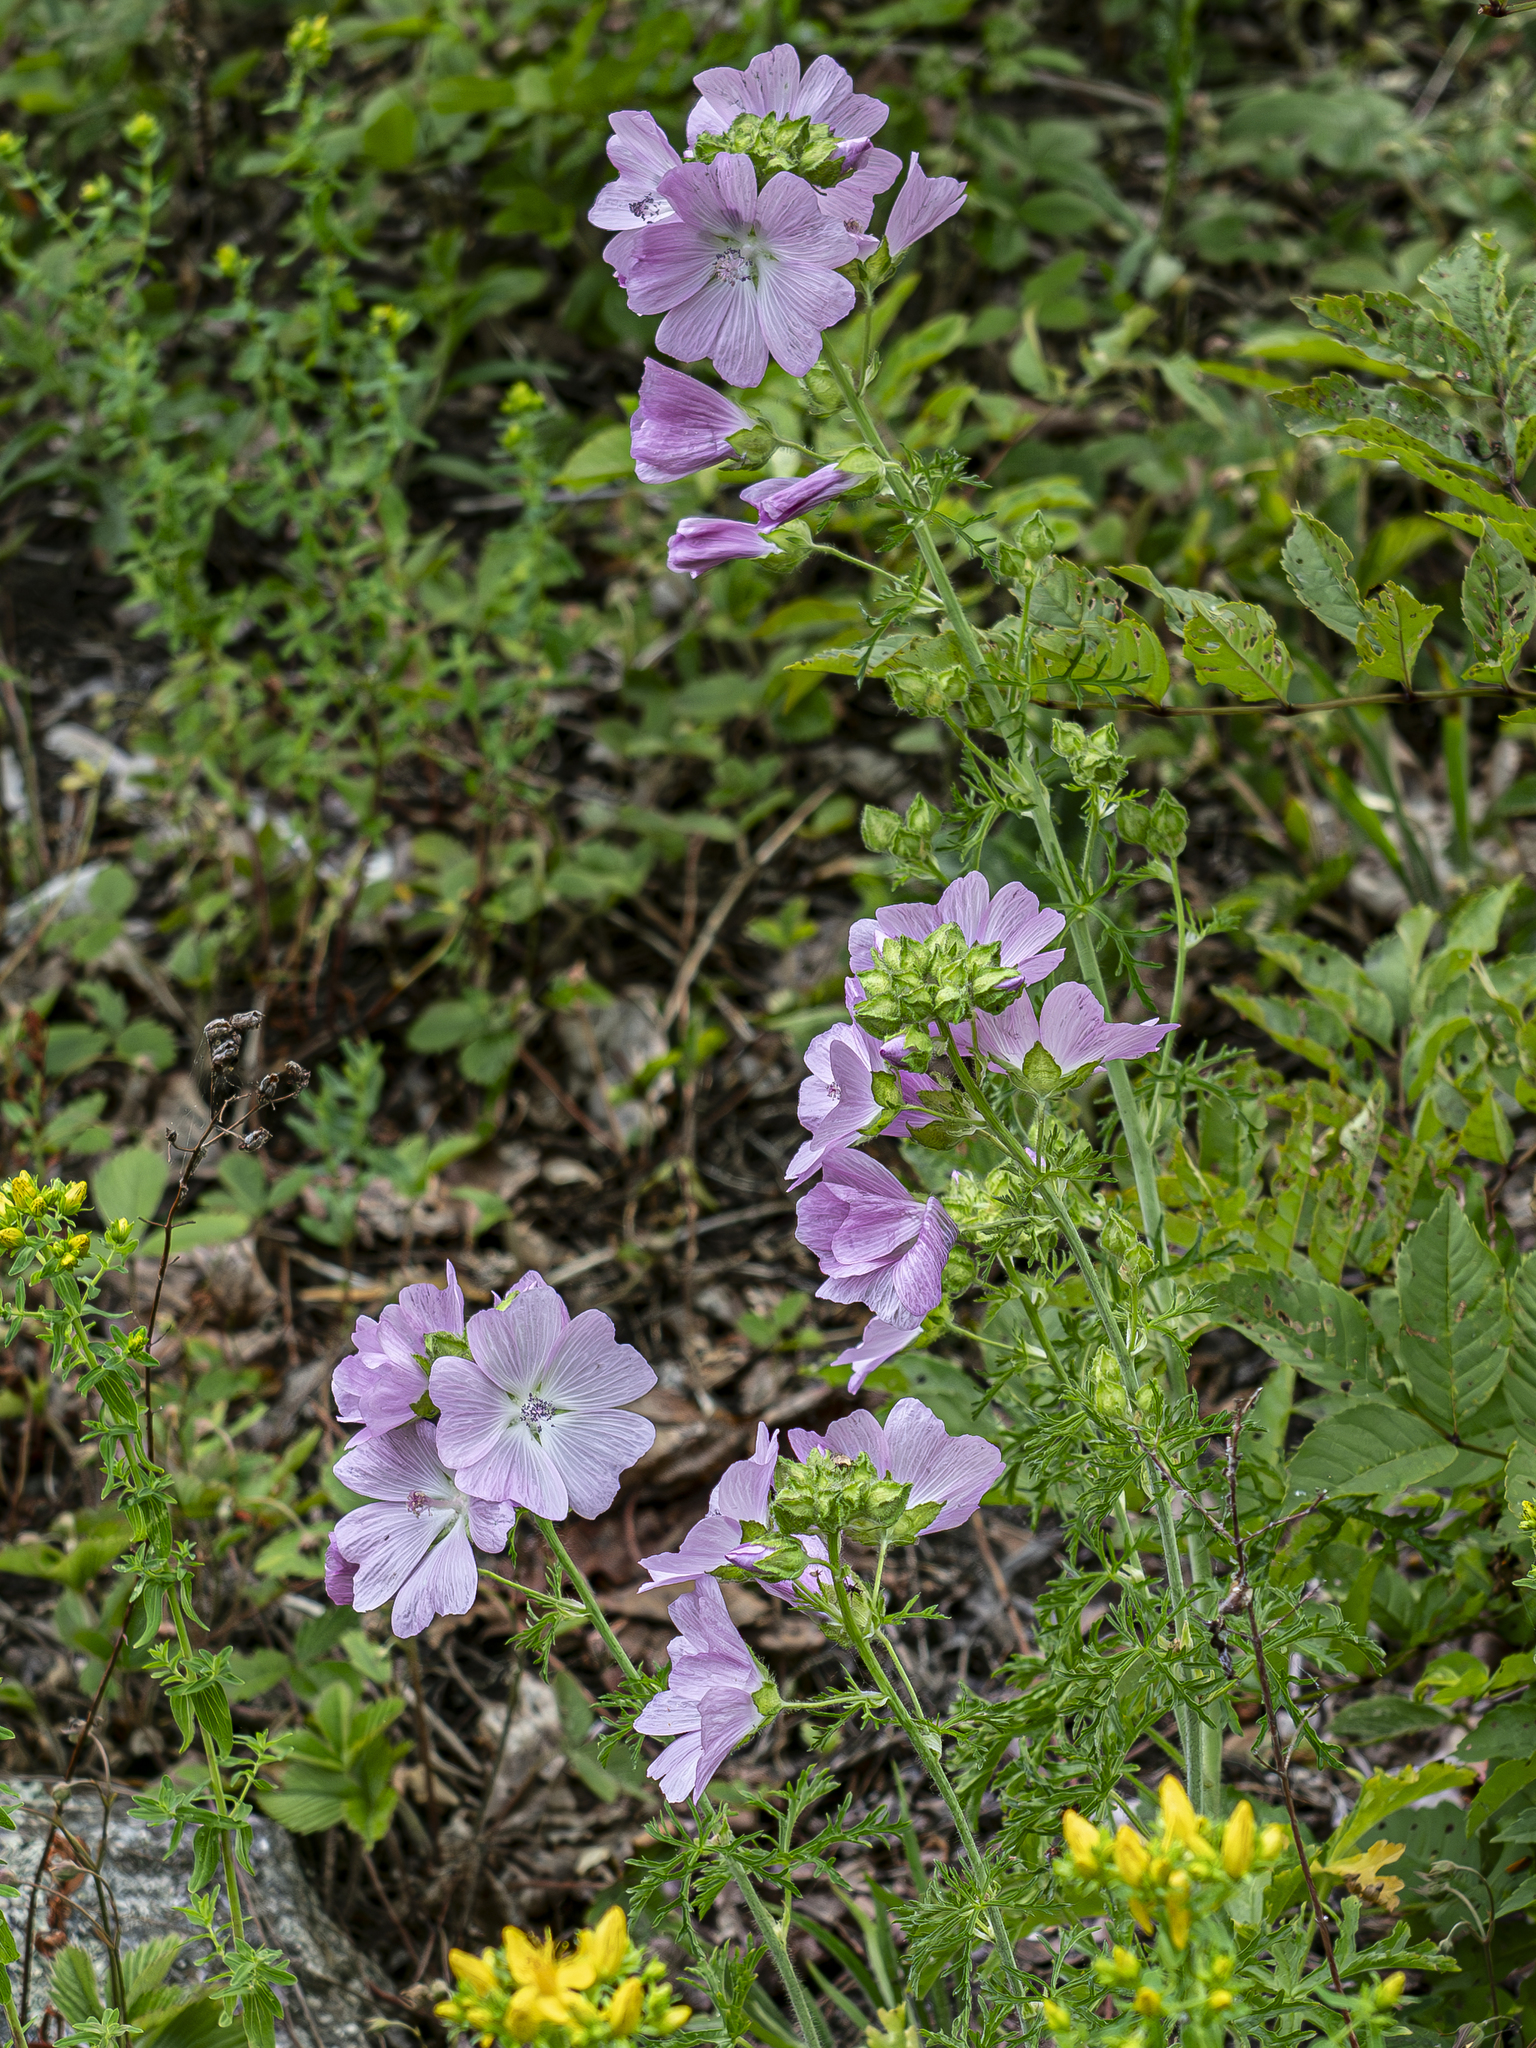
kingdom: Plantae
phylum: Tracheophyta
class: Magnoliopsida
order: Malvales
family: Malvaceae
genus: Malva
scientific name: Malva moschata
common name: Musk mallow
